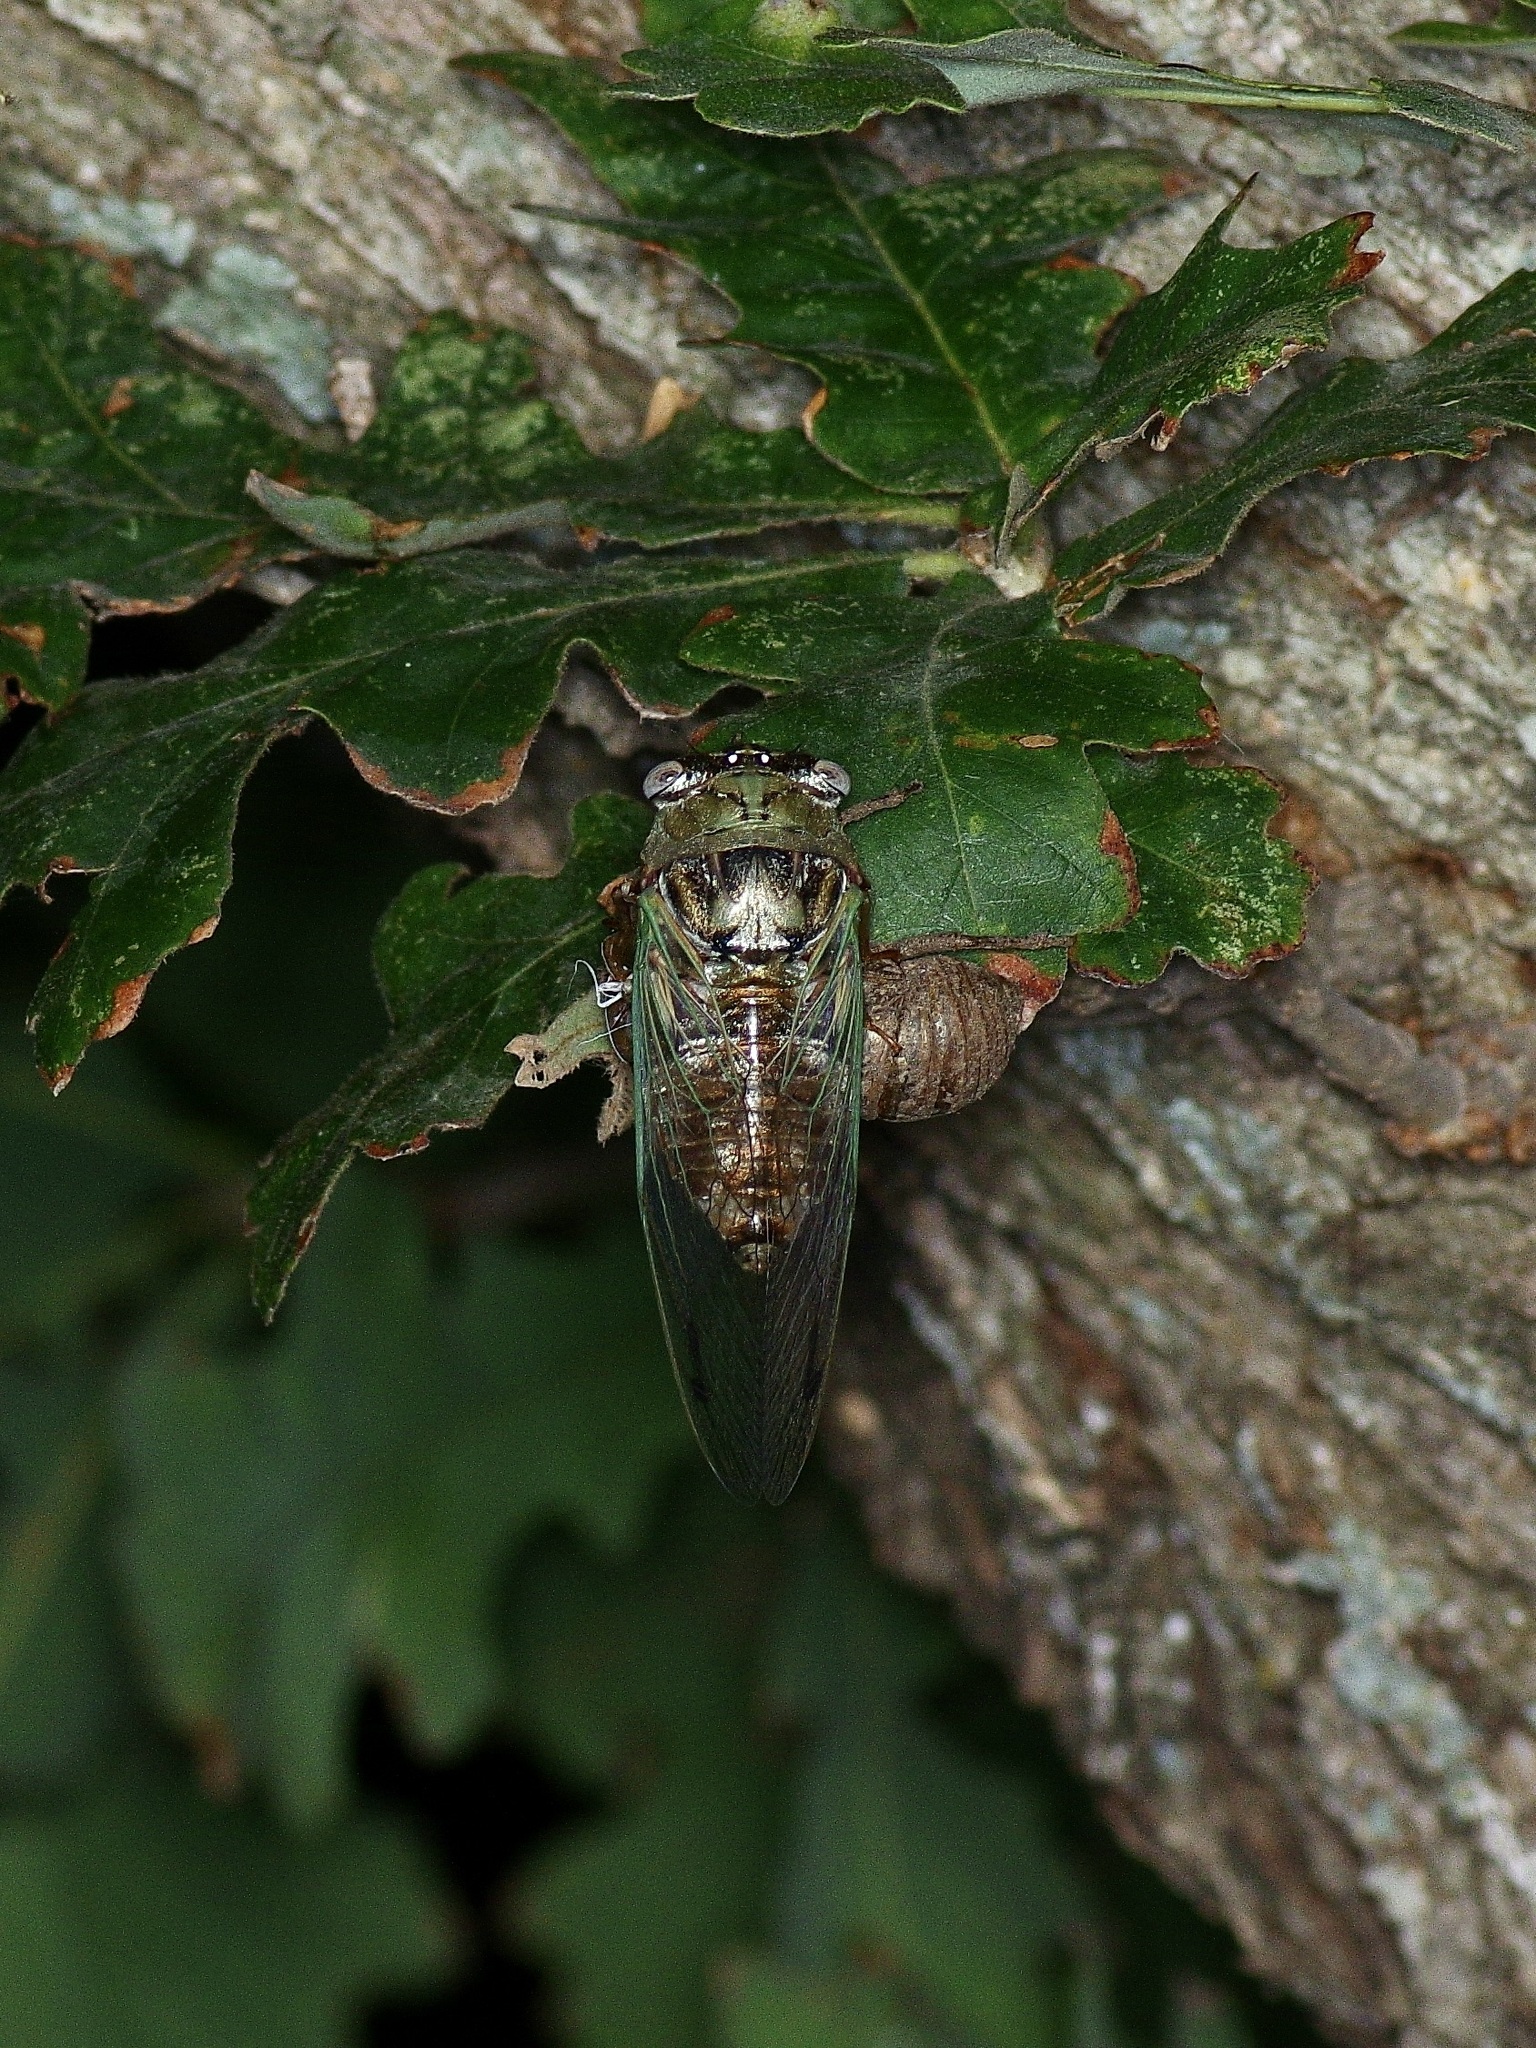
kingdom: Animalia
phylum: Arthropoda
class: Insecta
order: Hemiptera
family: Cicadidae
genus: Megatibicen
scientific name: Megatibicen resh
